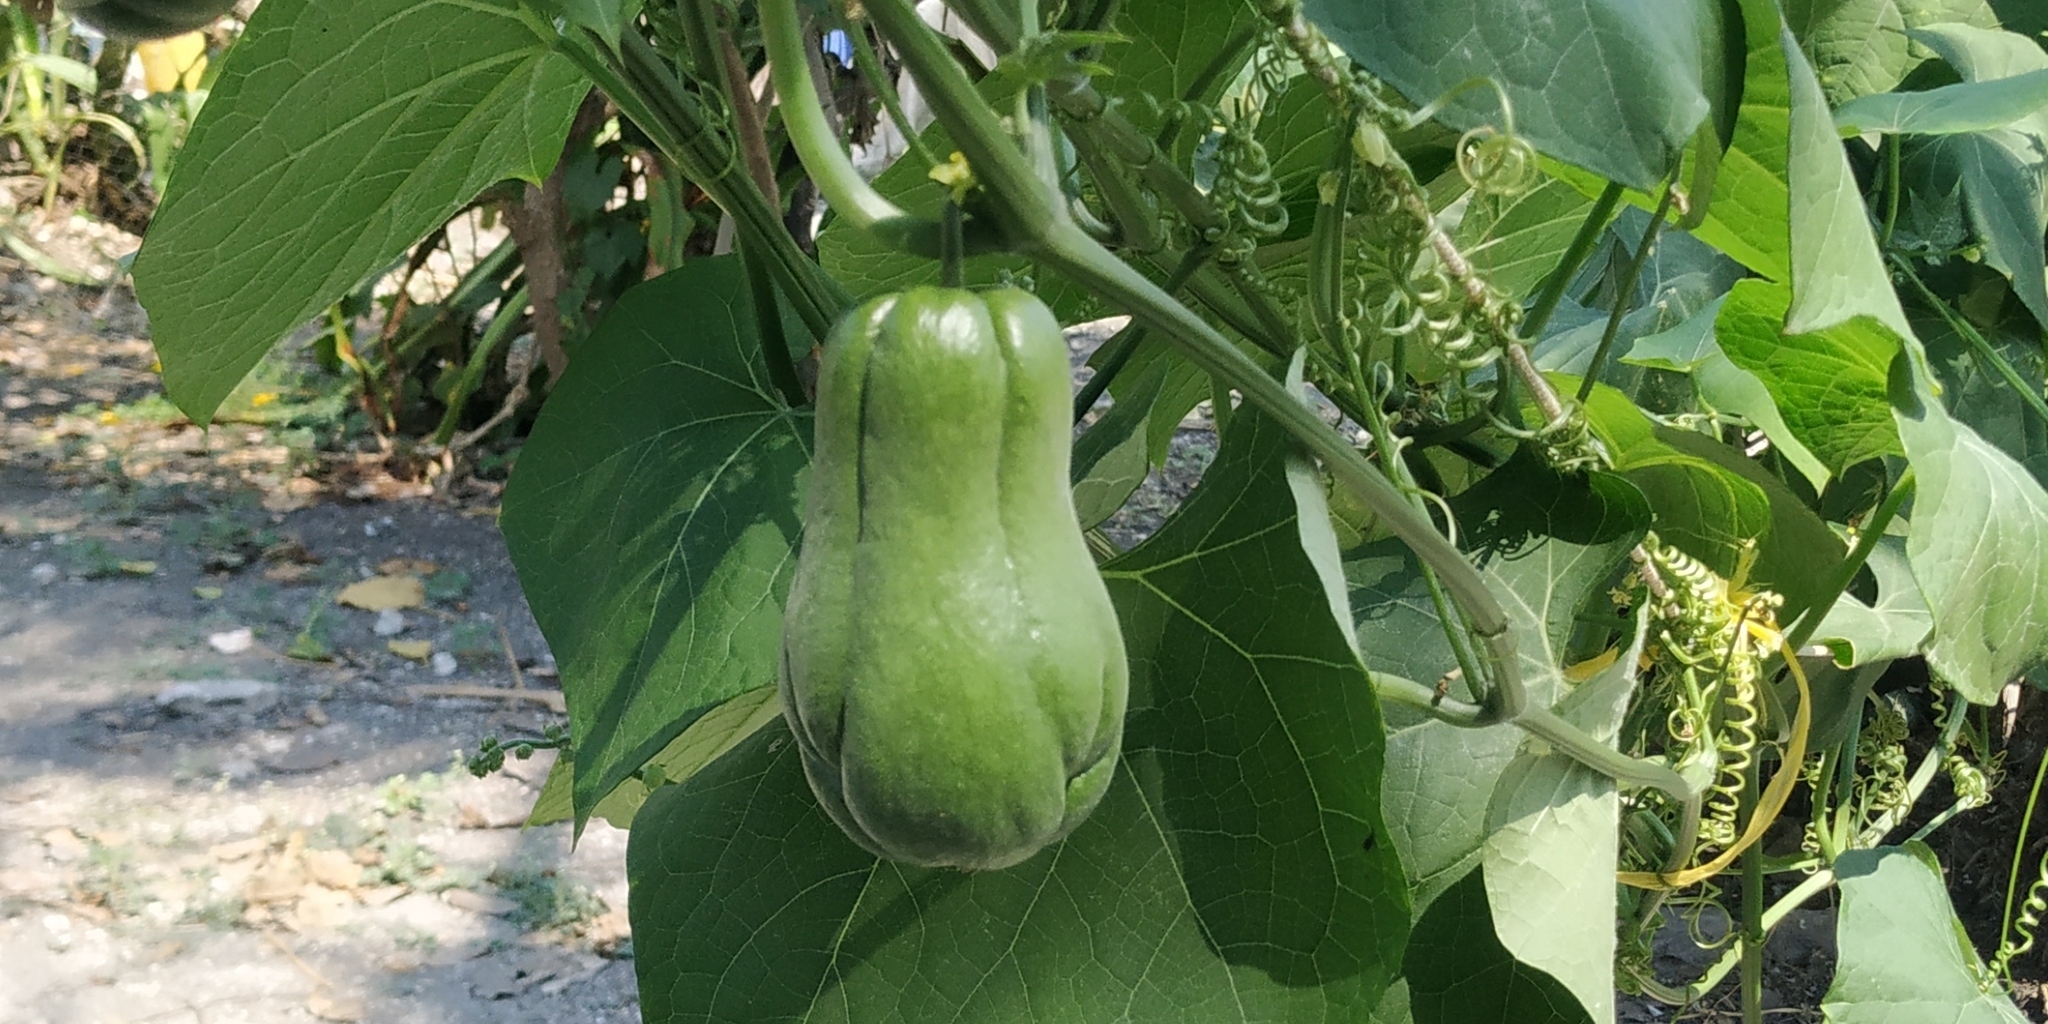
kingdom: Plantae
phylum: Tracheophyta
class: Magnoliopsida
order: Cucurbitales
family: Cucurbitaceae
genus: Sechium
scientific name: Sechium edule
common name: Chayote
